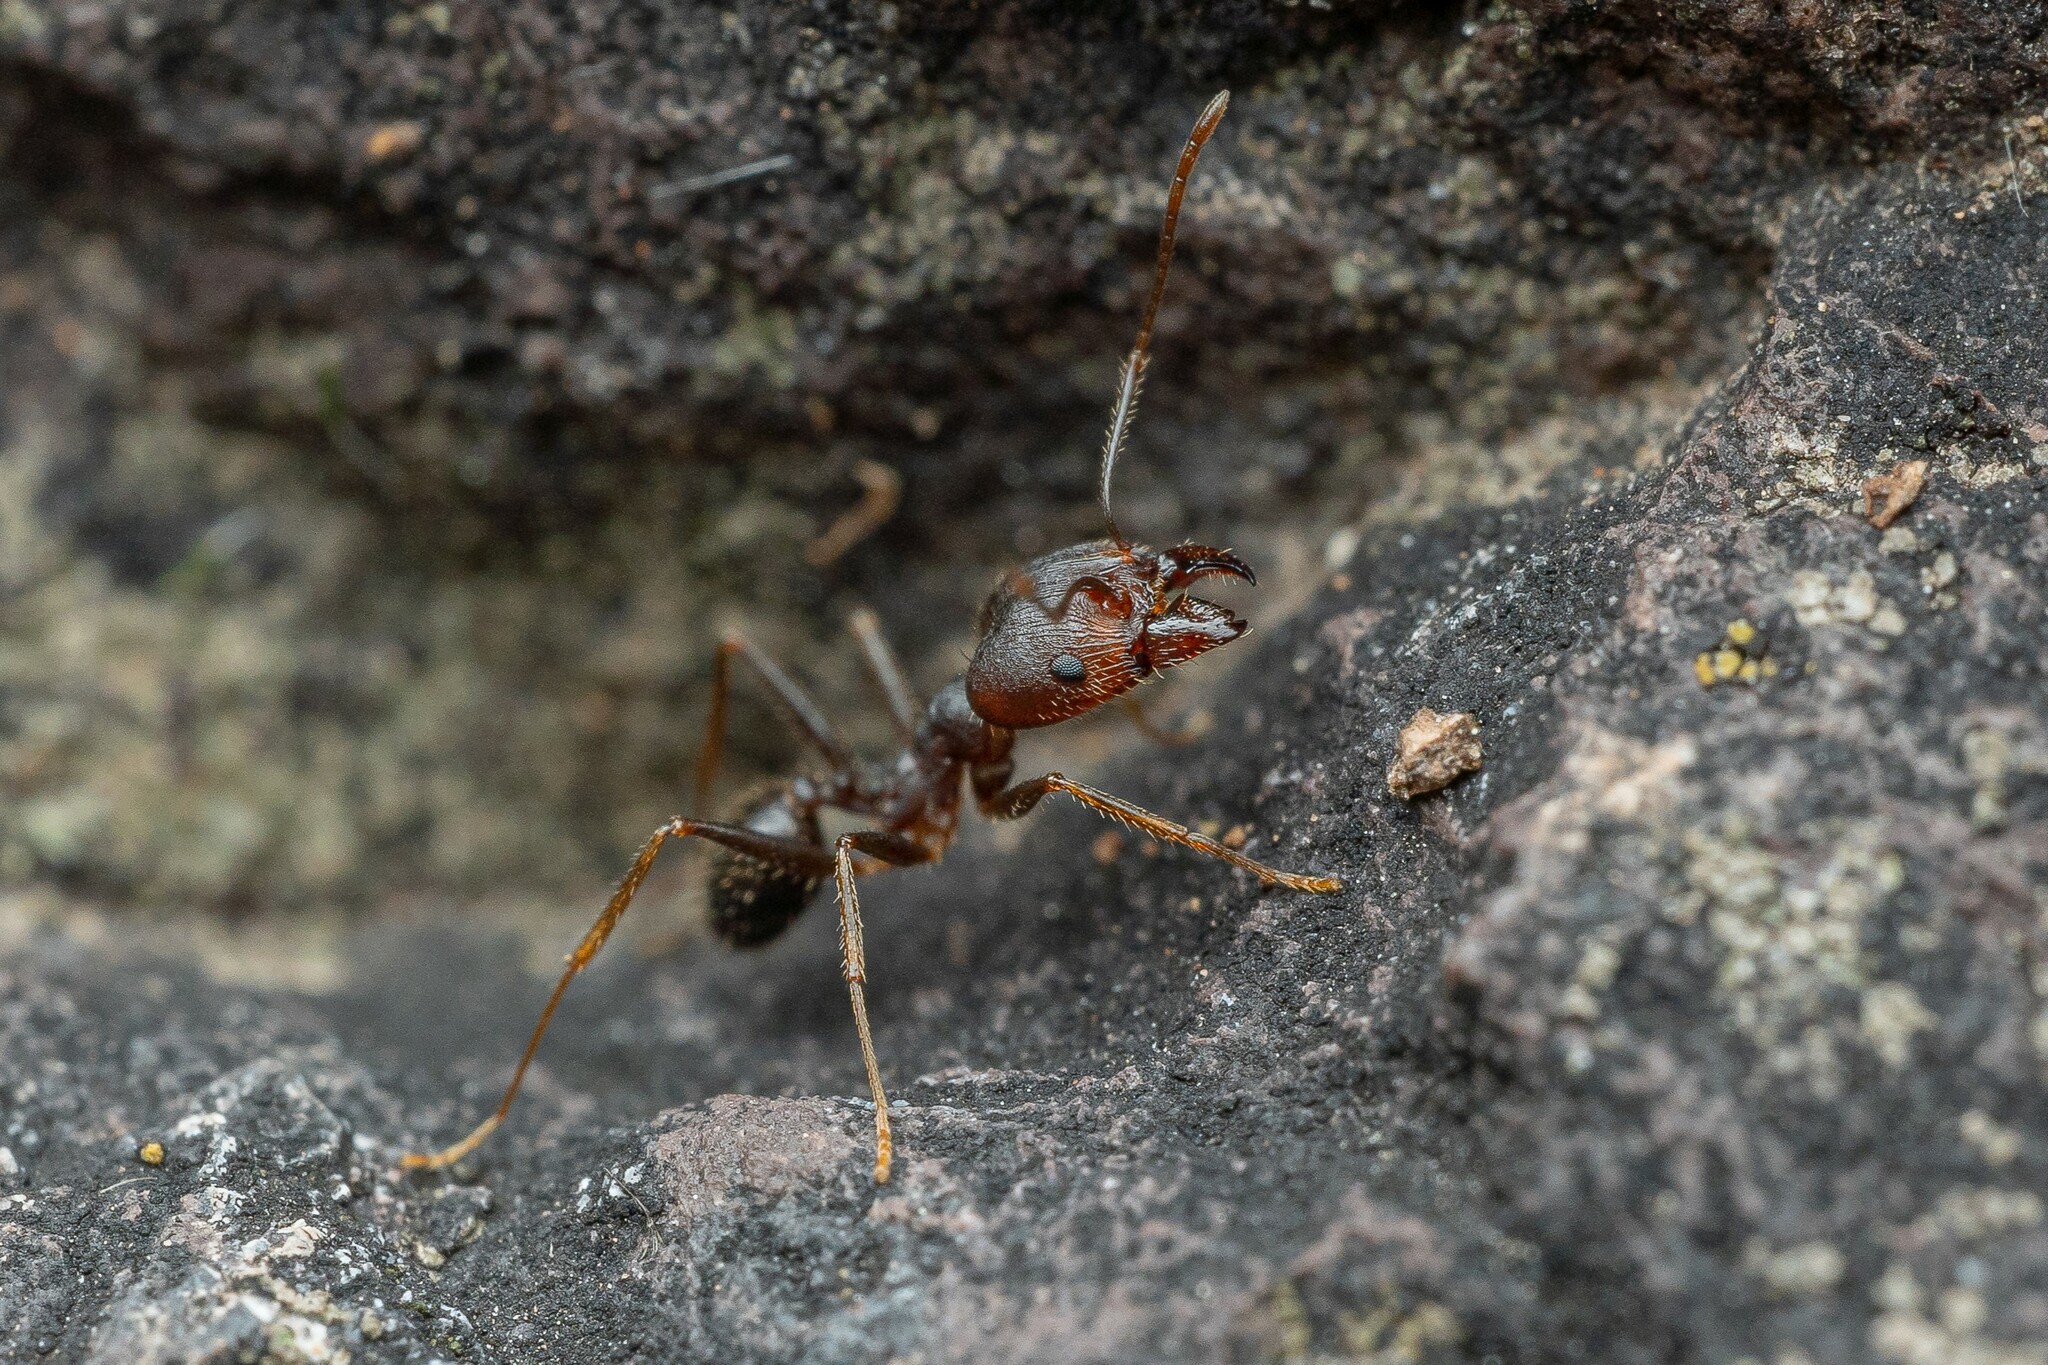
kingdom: Animalia
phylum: Arthropoda
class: Insecta
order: Hymenoptera
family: Formicidae
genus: Pheidole
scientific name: Pheidole portalensis
